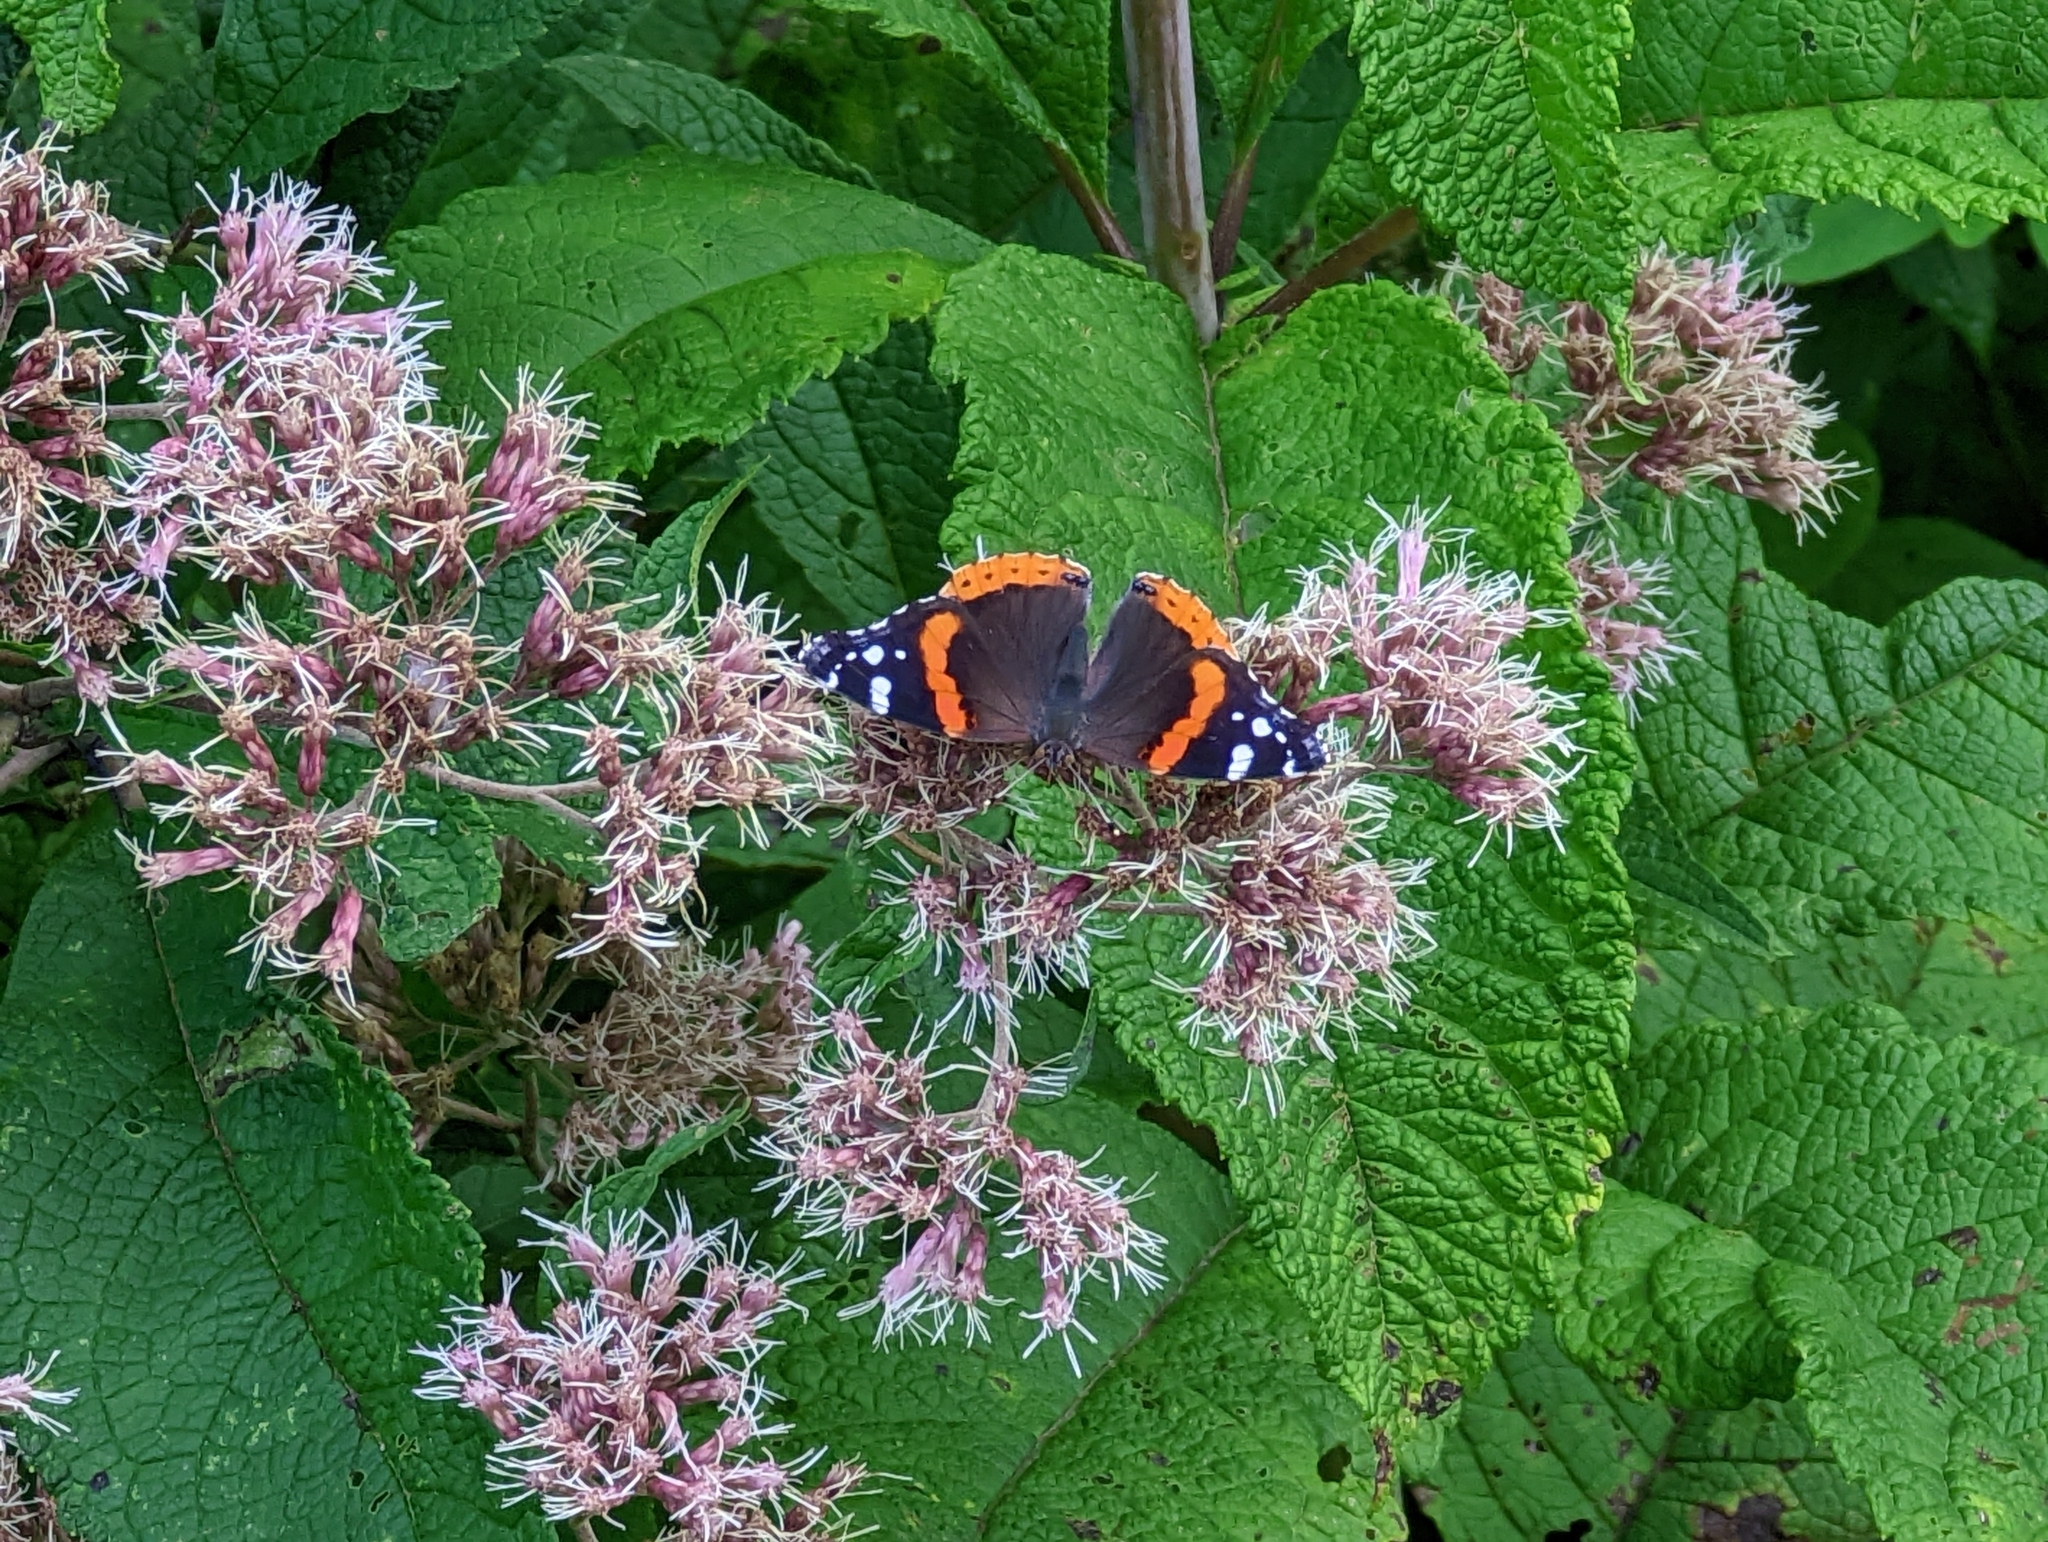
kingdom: Animalia
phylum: Arthropoda
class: Insecta
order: Lepidoptera
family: Nymphalidae
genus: Vanessa
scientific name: Vanessa atalanta
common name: Red admiral
